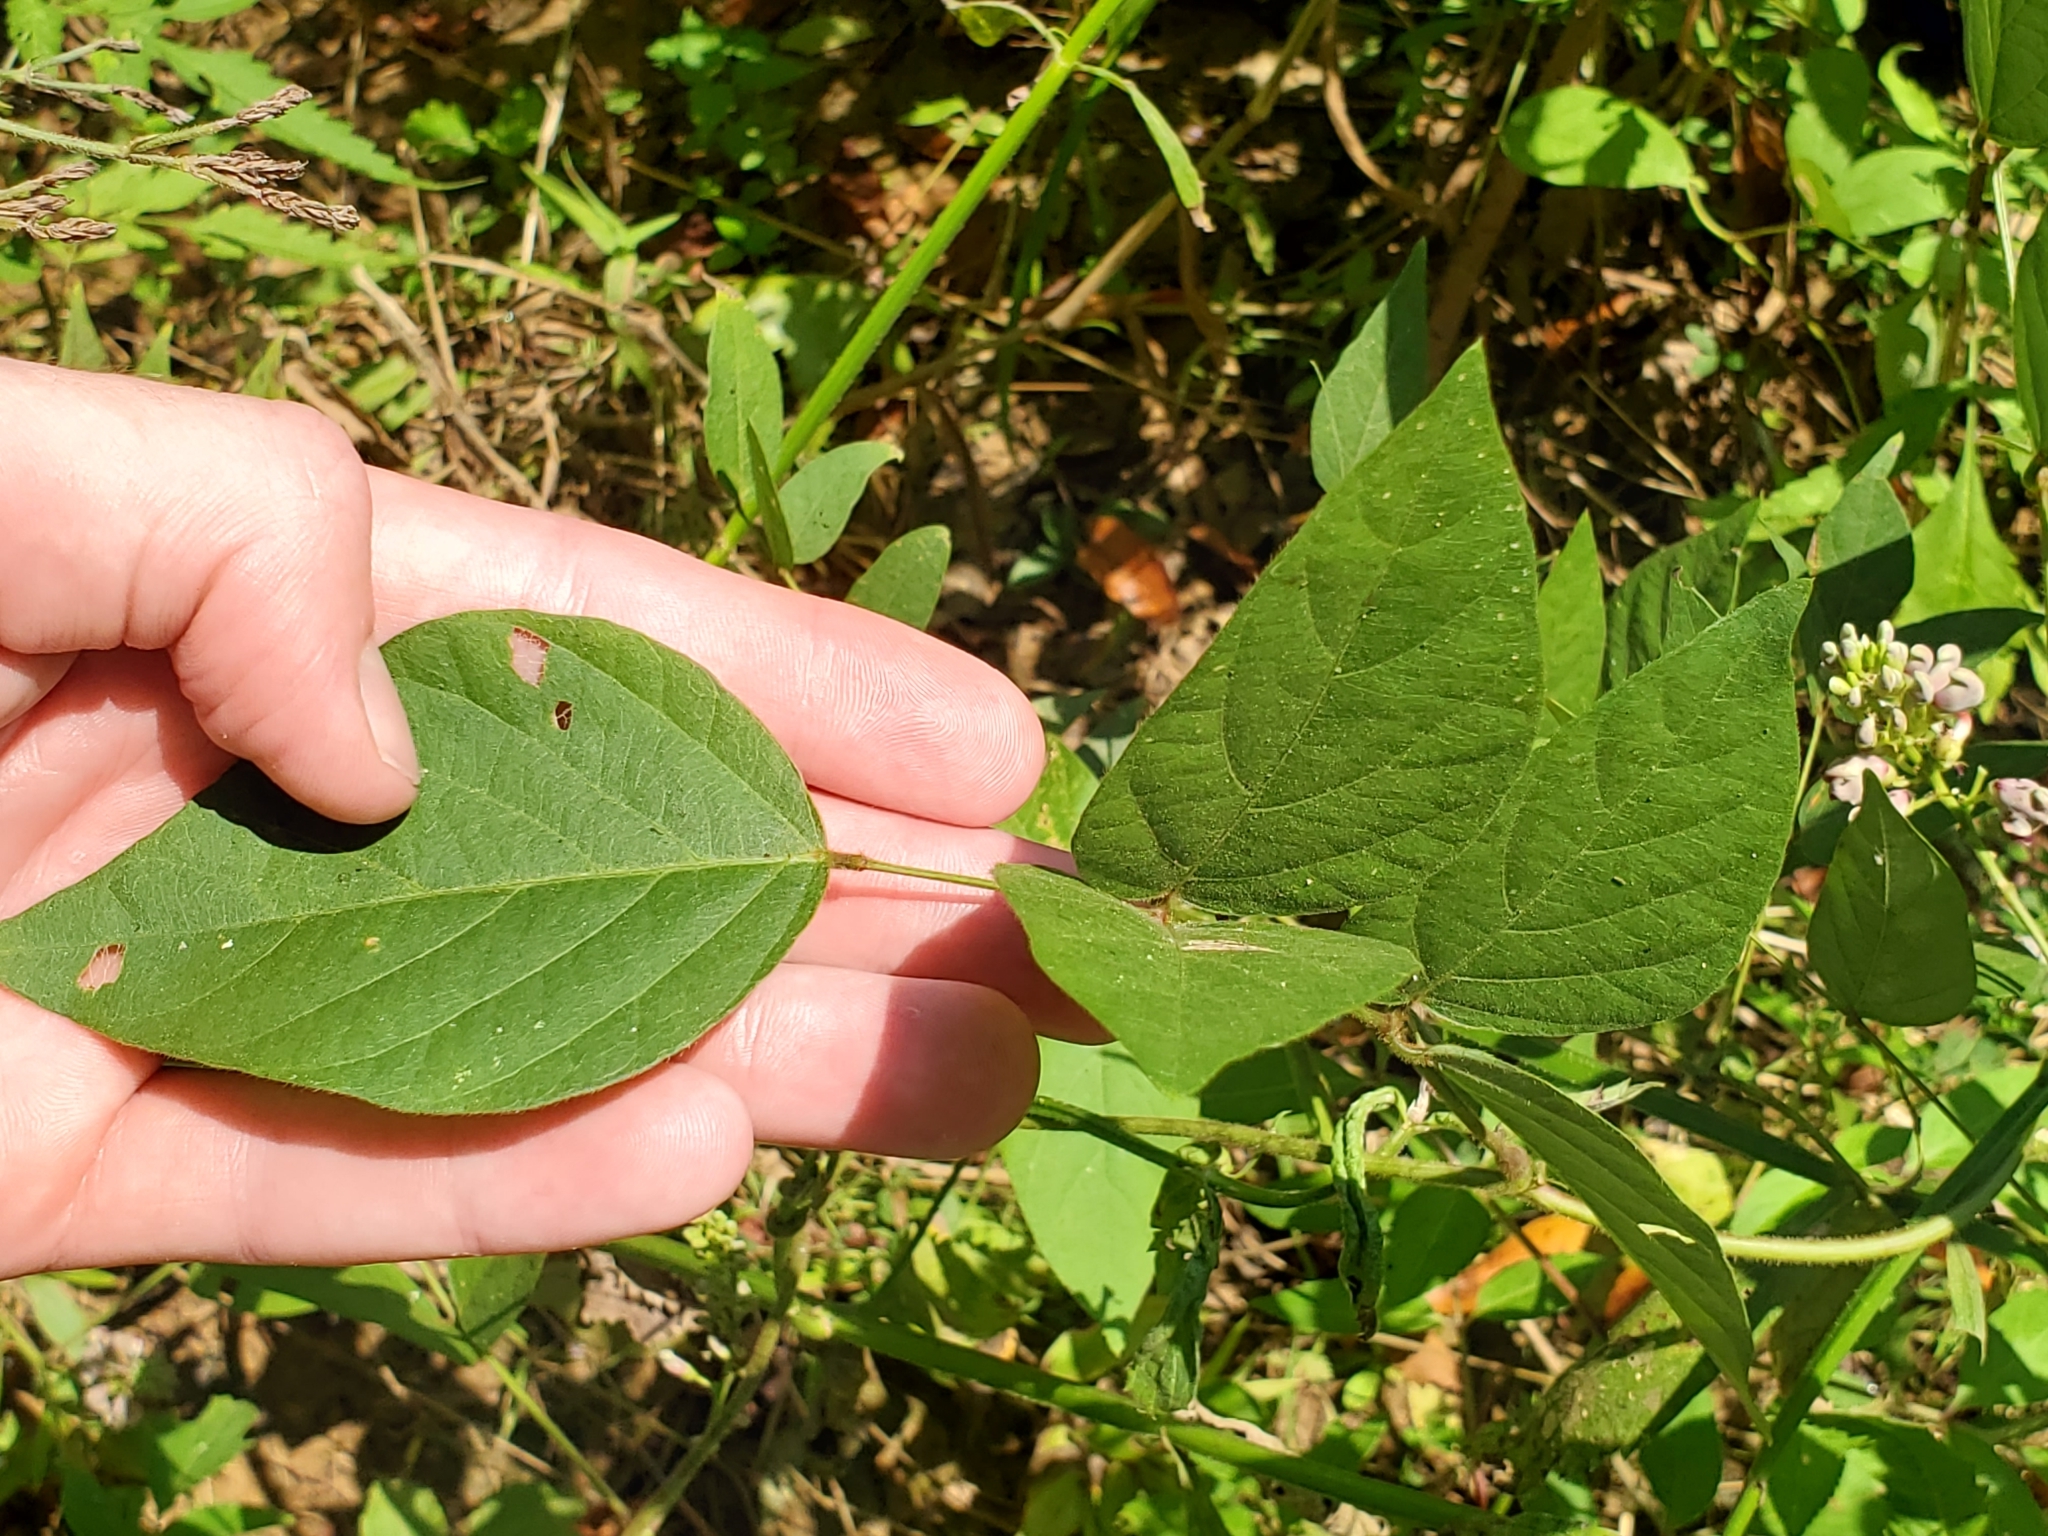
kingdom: Plantae
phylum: Tracheophyta
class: Magnoliopsida
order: Fabales
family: Fabaceae
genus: Apios
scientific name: Apios americana
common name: American potato-bean
